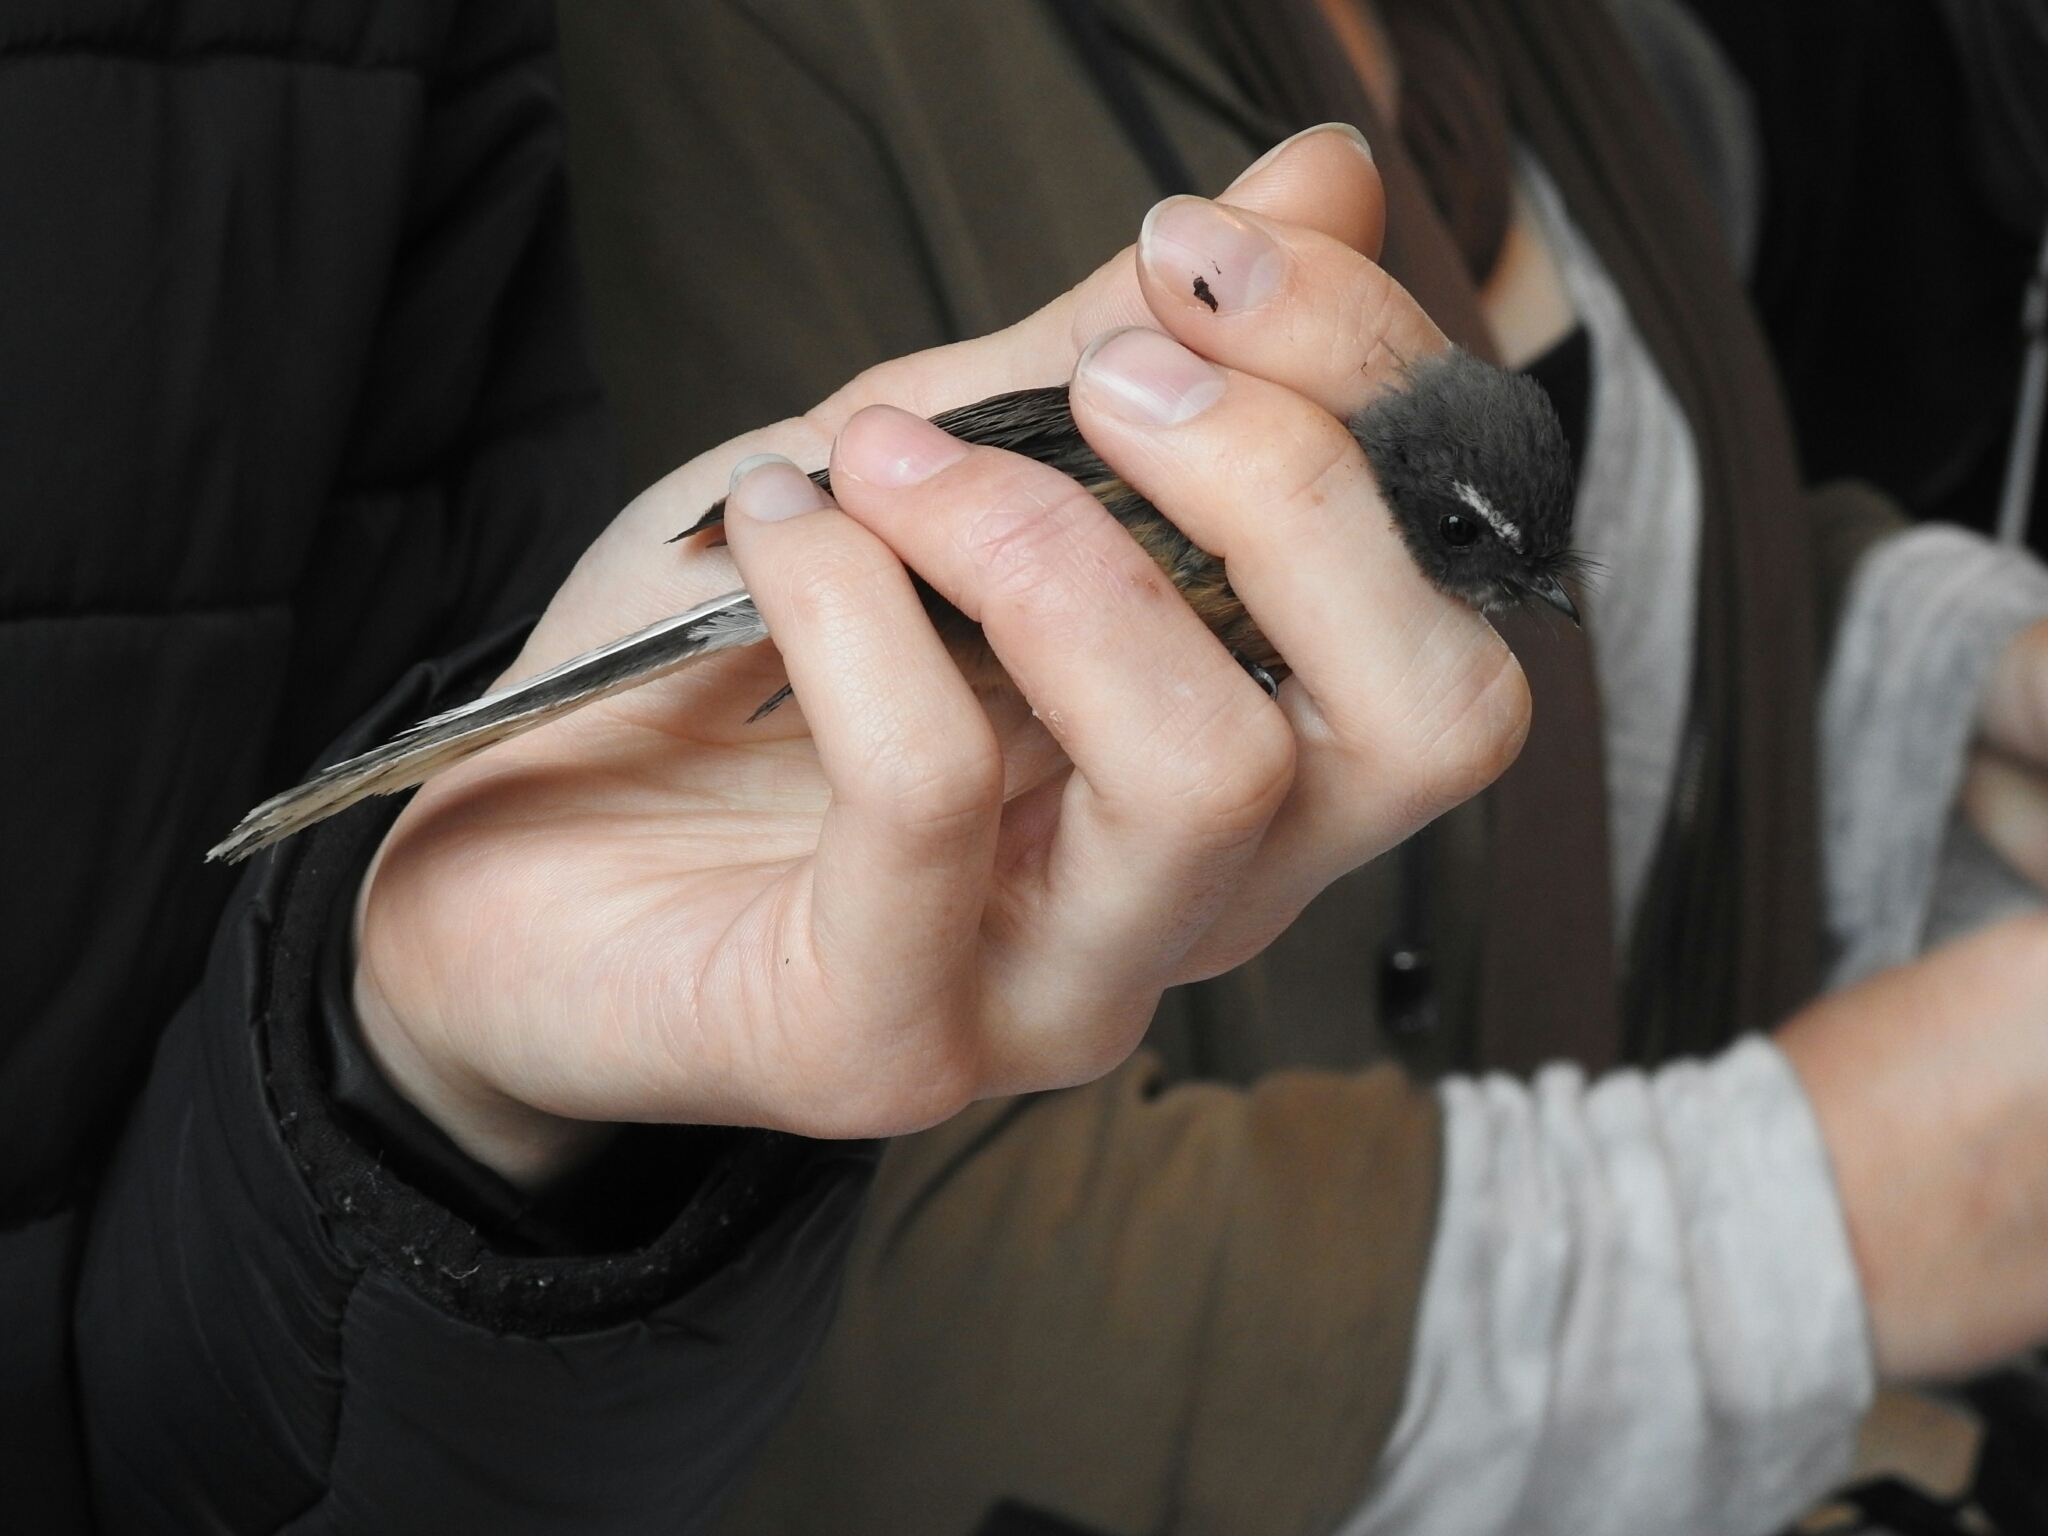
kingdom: Animalia
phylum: Chordata
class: Aves
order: Passeriformes
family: Rhipiduridae
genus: Rhipidura
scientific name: Rhipidura fuliginosa
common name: New zealand fantail
